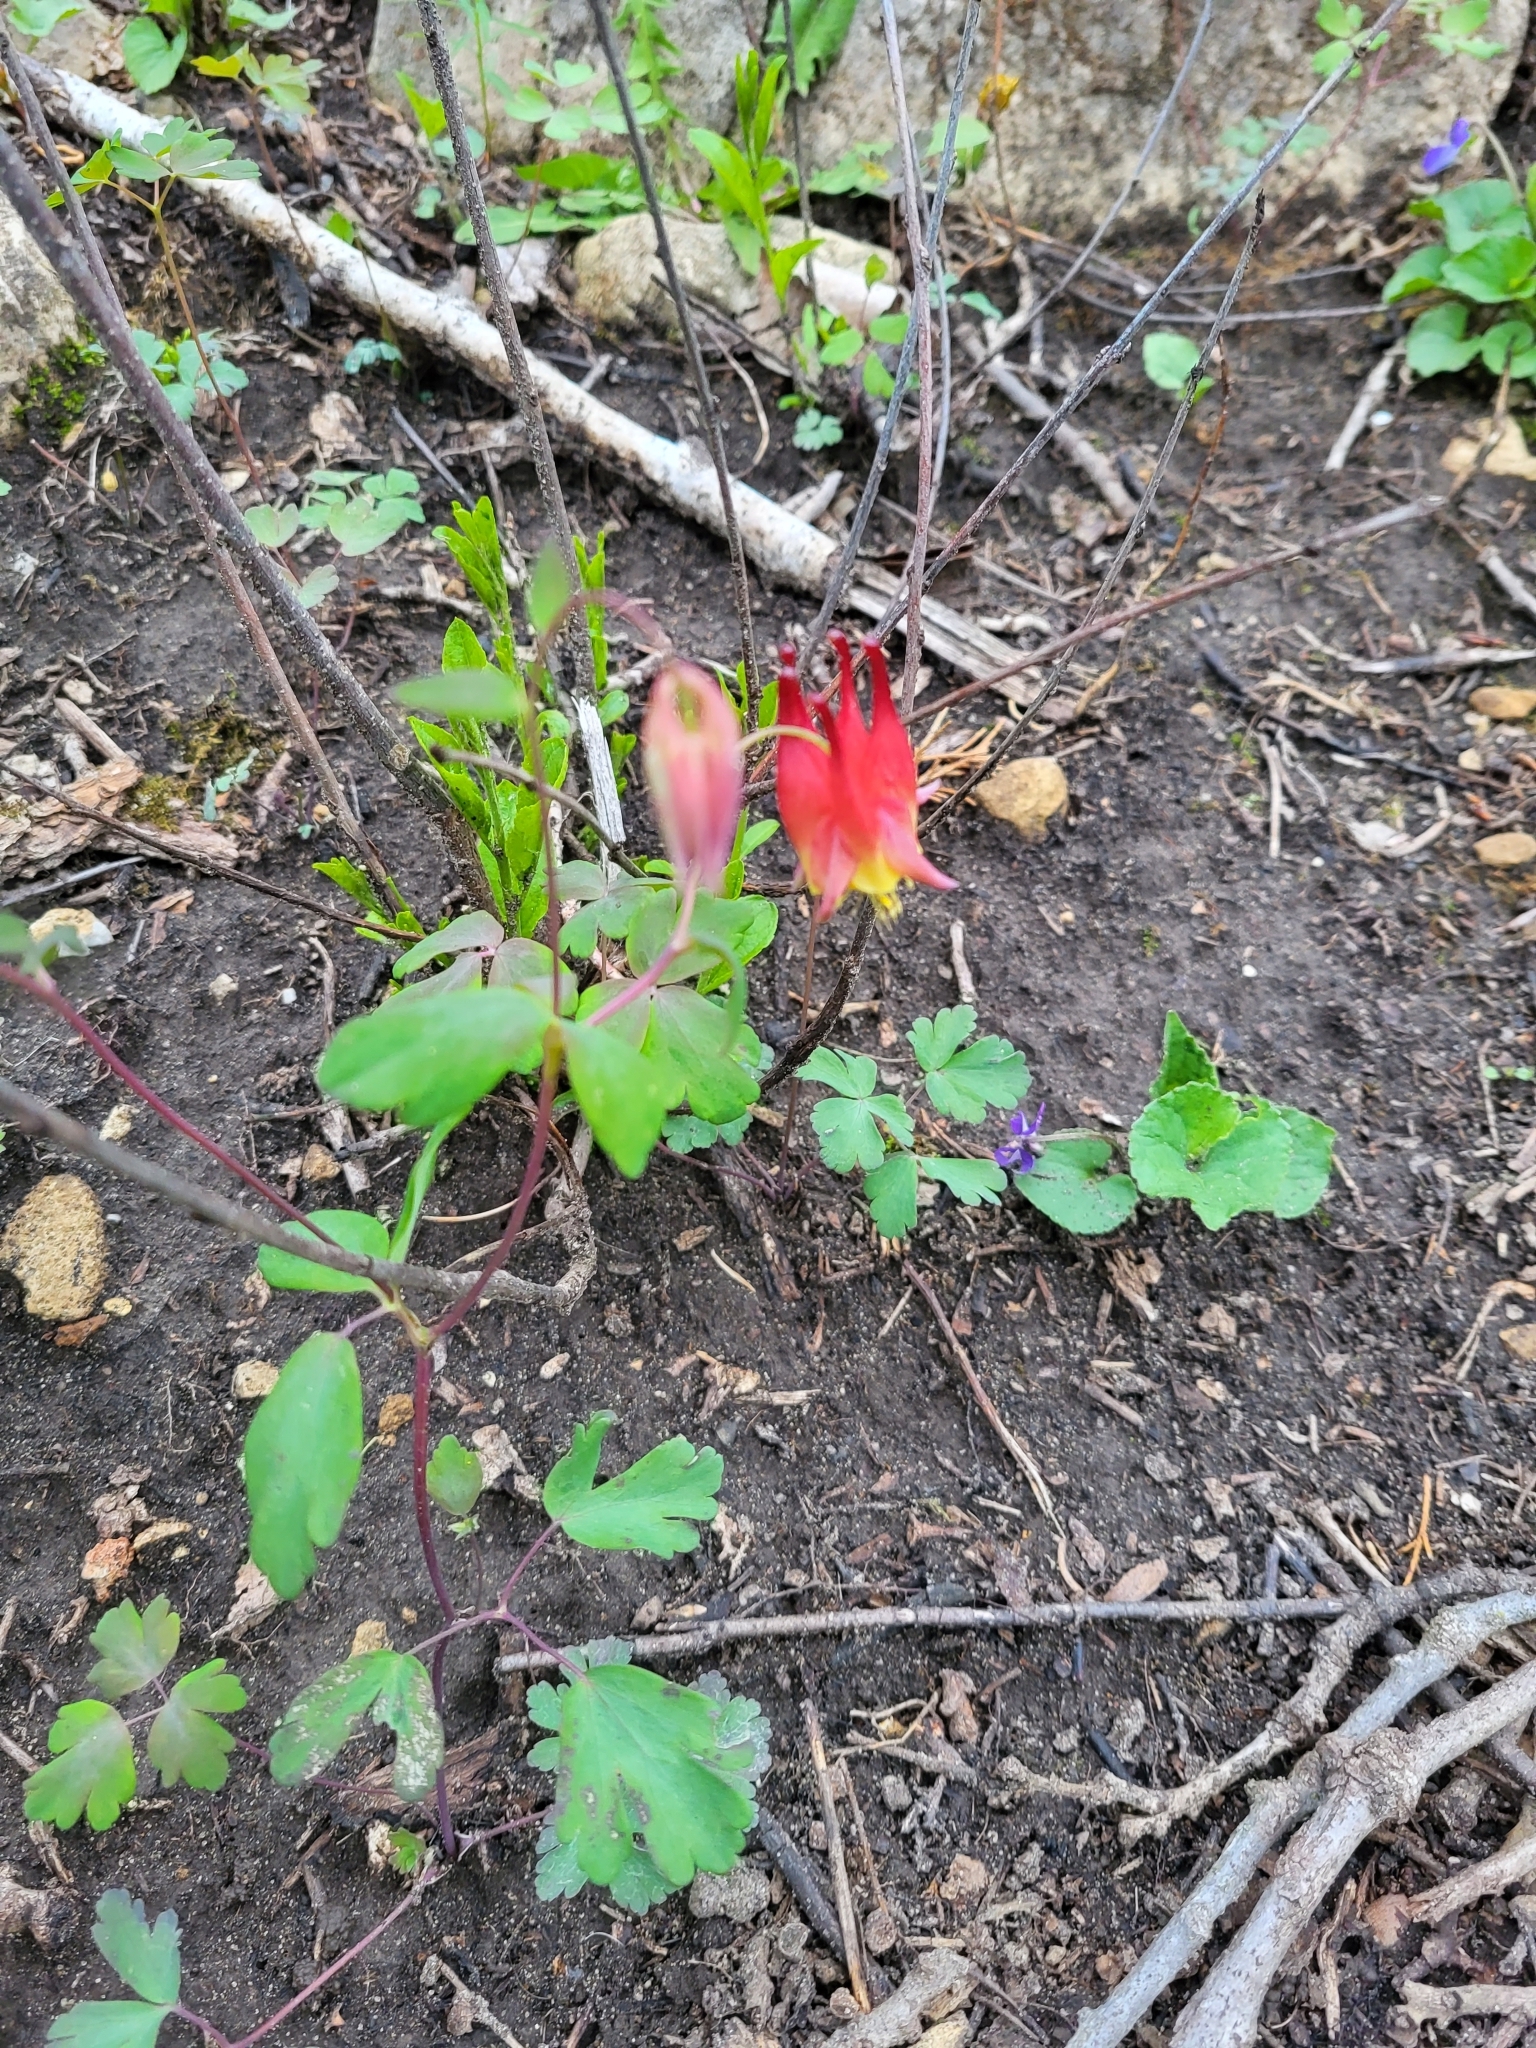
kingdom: Plantae
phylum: Tracheophyta
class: Magnoliopsida
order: Ranunculales
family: Ranunculaceae
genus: Aquilegia
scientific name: Aquilegia canadensis
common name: American columbine
